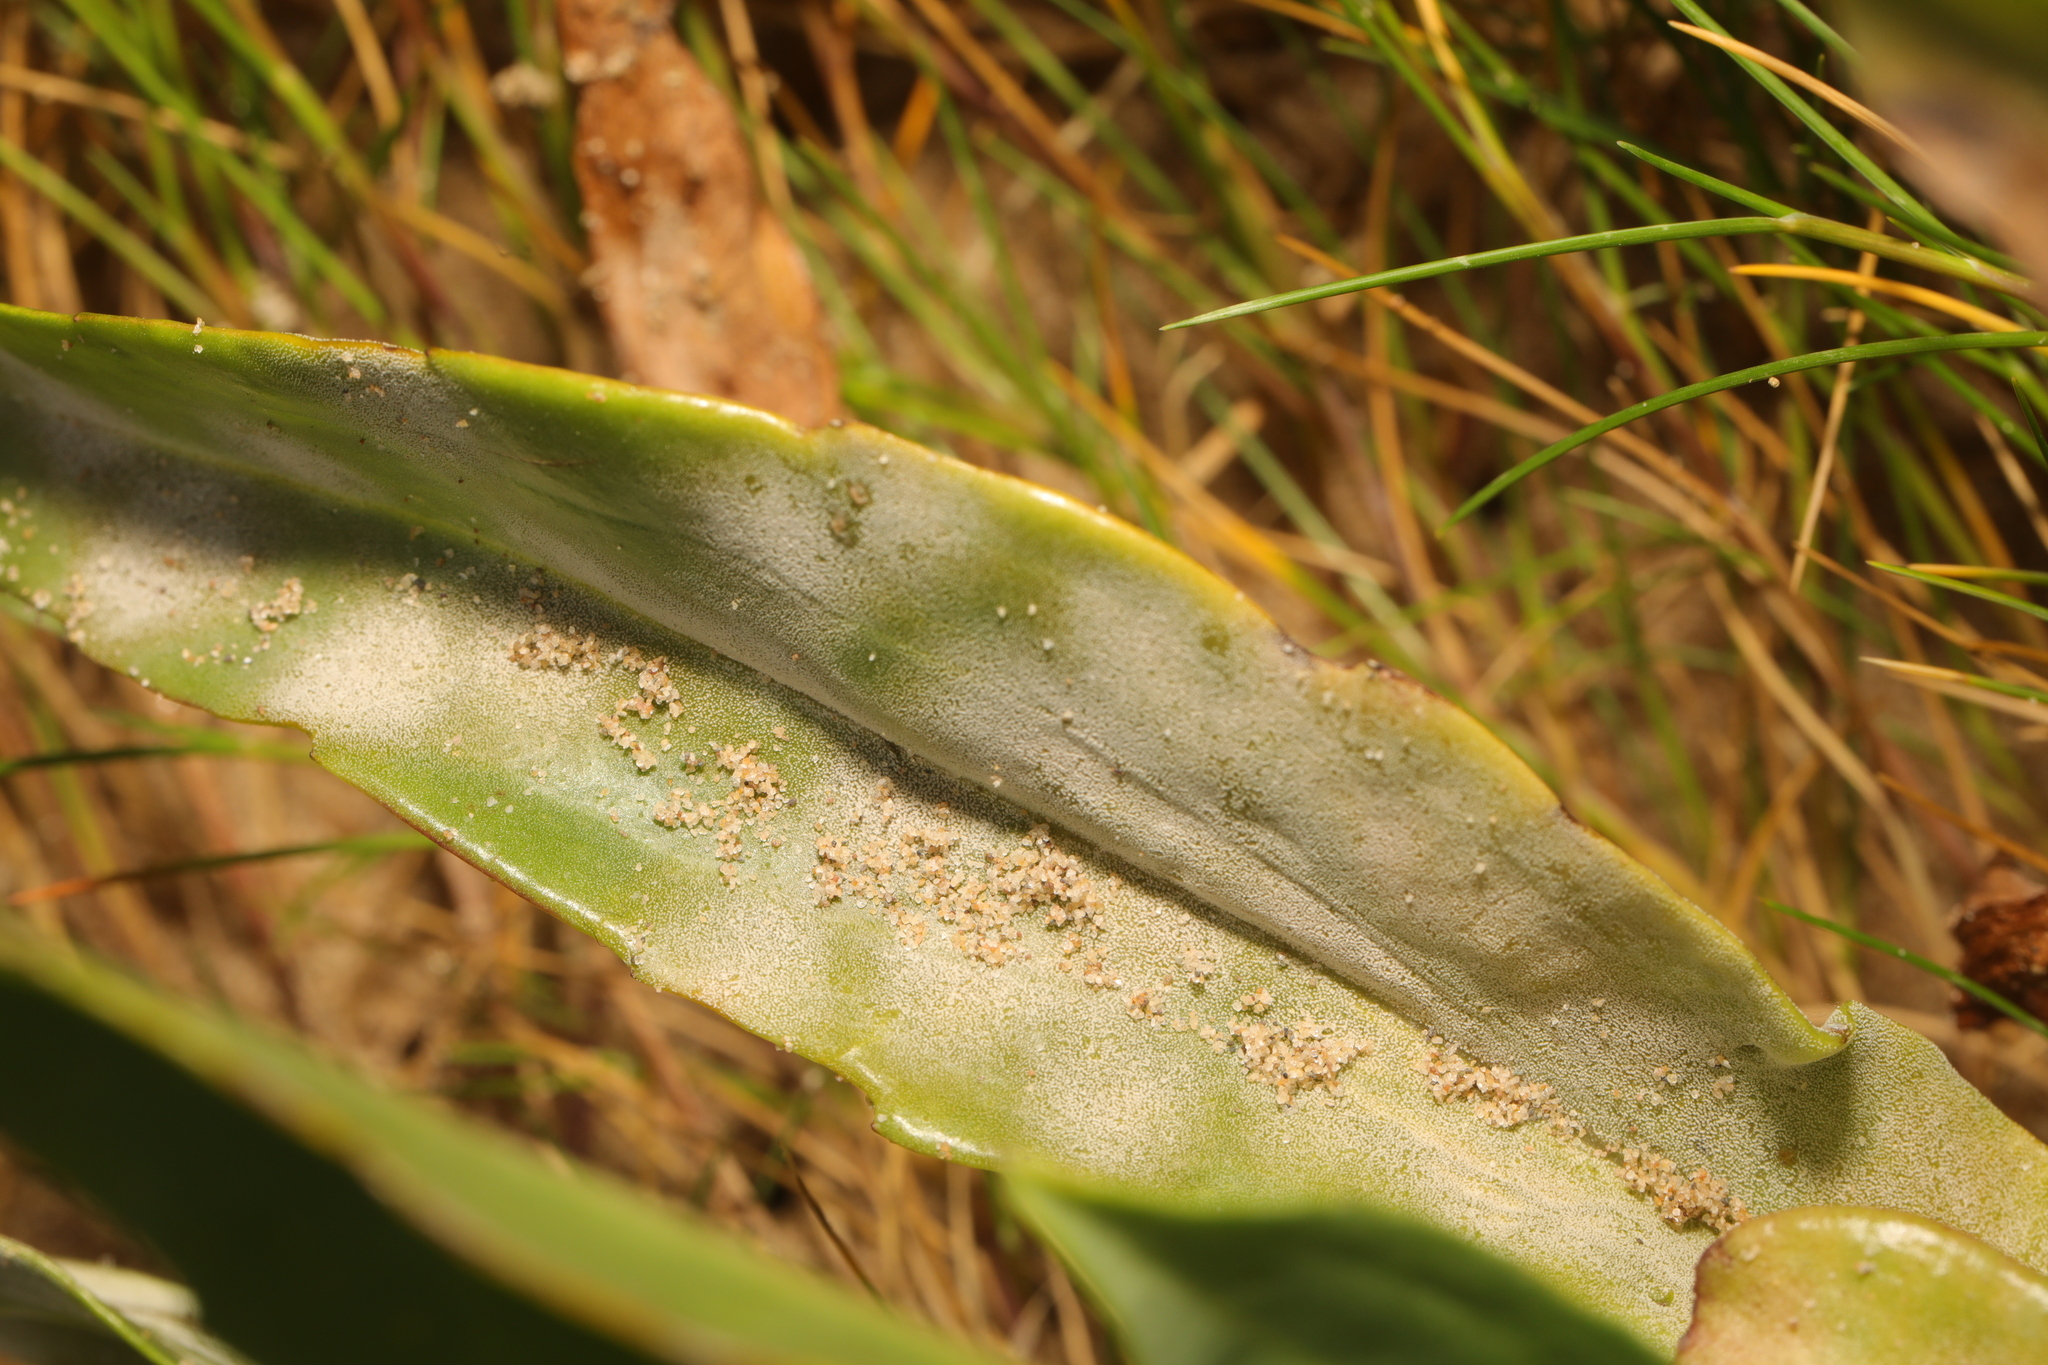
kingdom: Fungi
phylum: Ascomycota
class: Leotiomycetes
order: Helotiales
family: Erysiphaceae
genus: Golovinomyces
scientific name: Golovinomyces asterum
